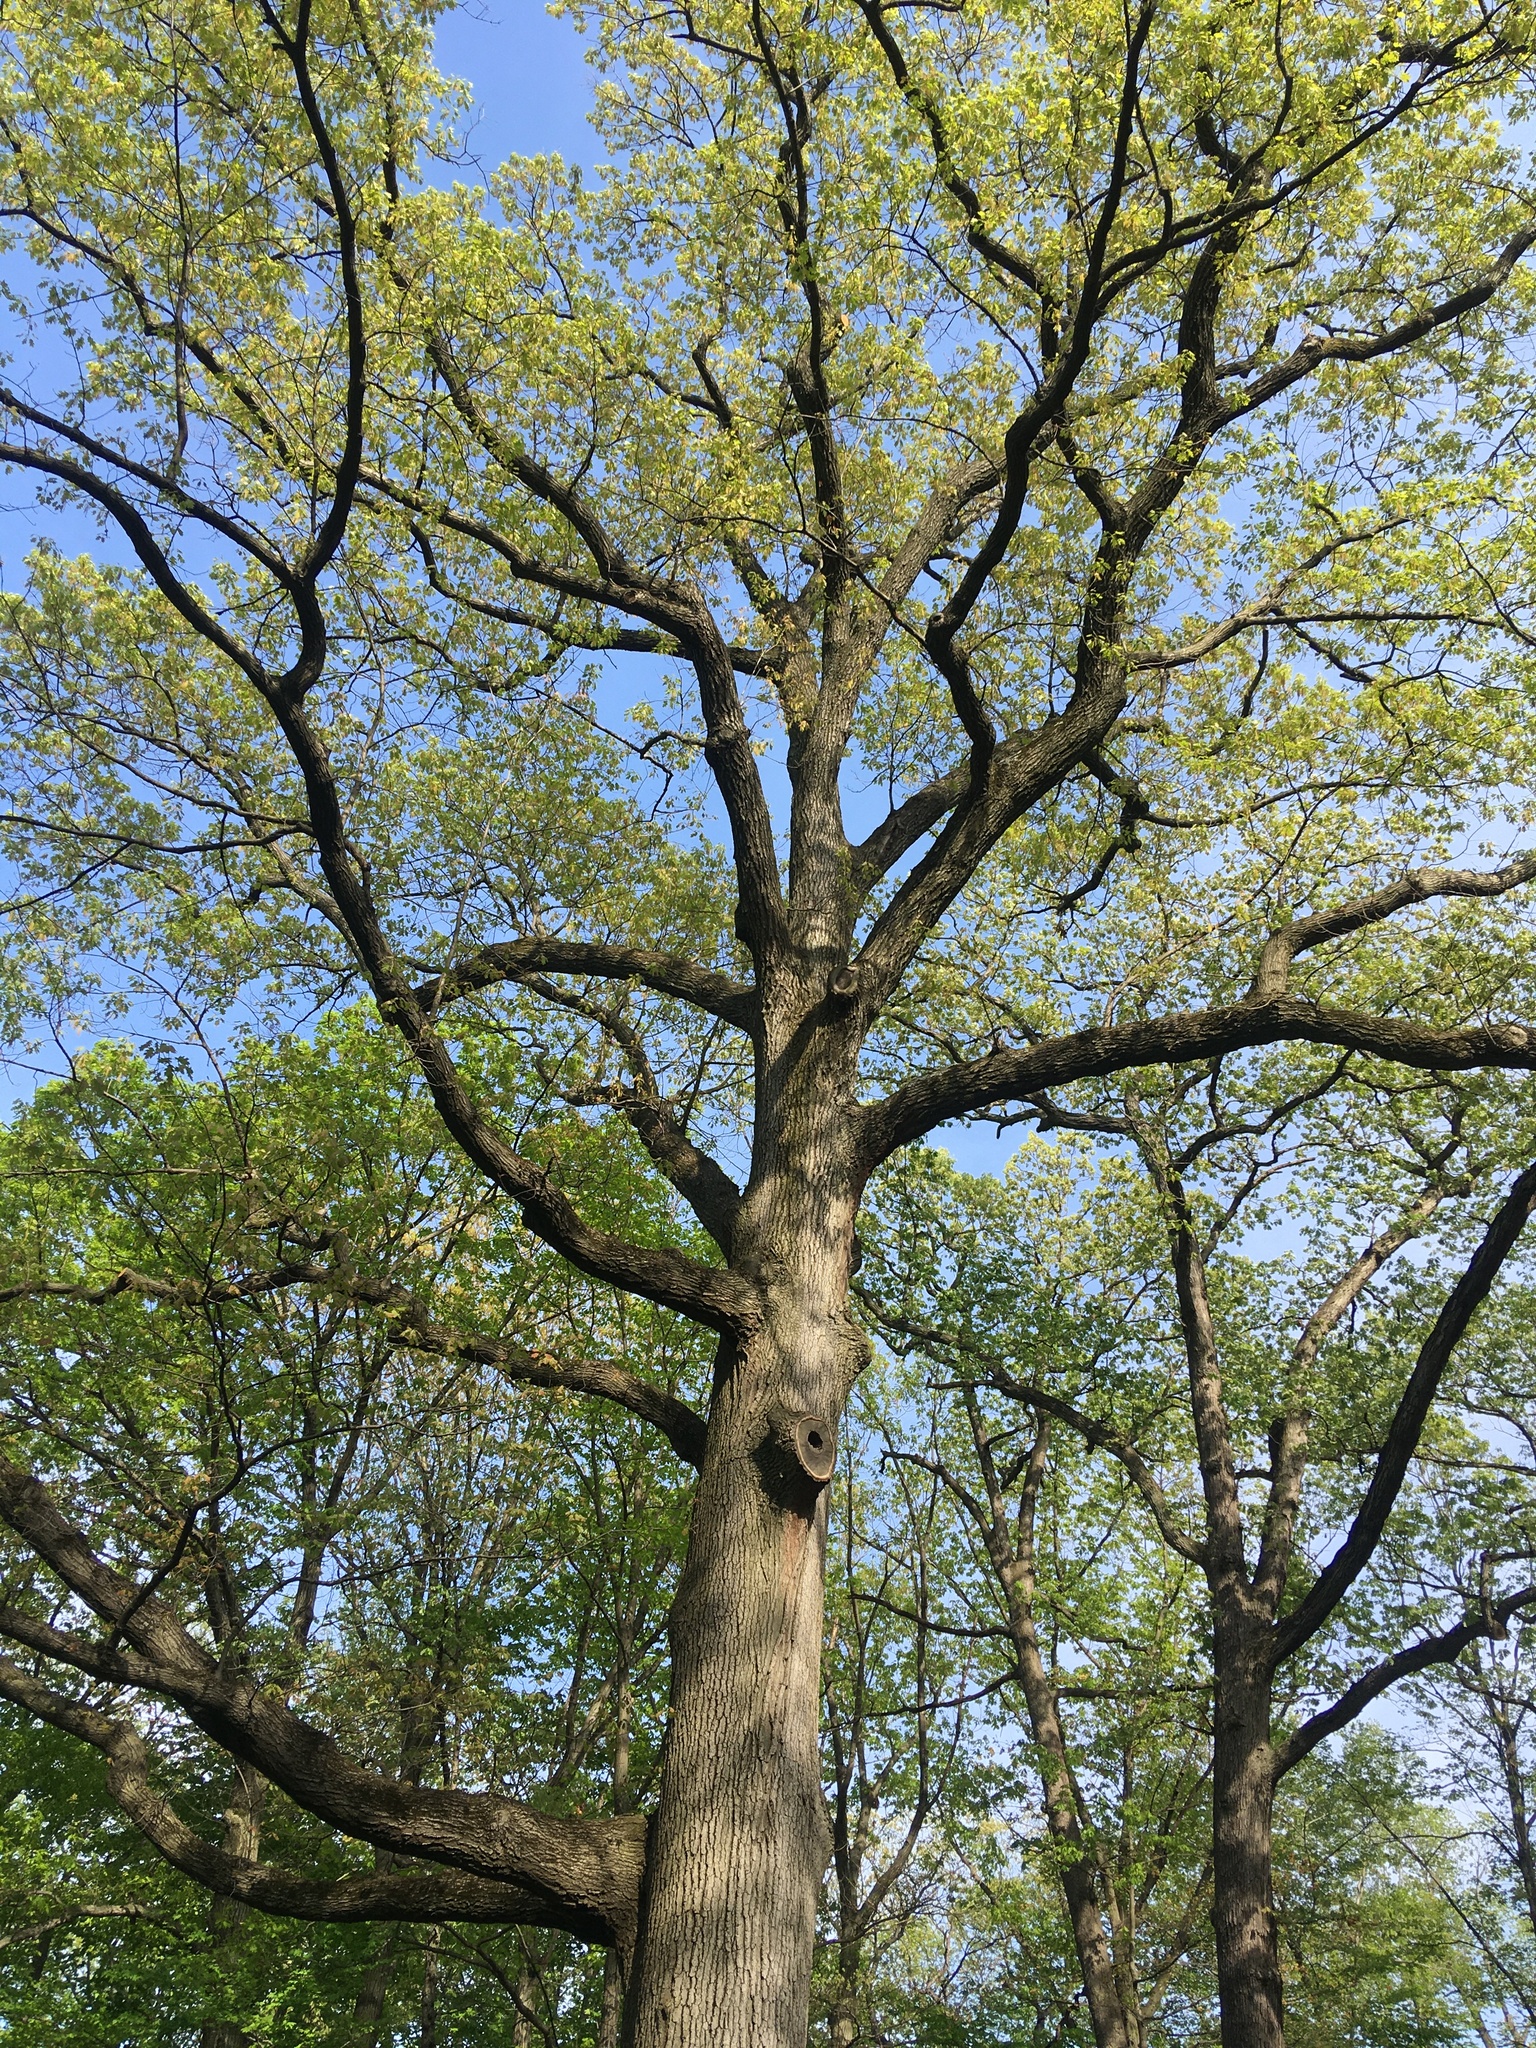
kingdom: Plantae
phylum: Tracheophyta
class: Magnoliopsida
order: Fagales
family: Fagaceae
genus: Quercus
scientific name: Quercus velutina
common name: Black oak
